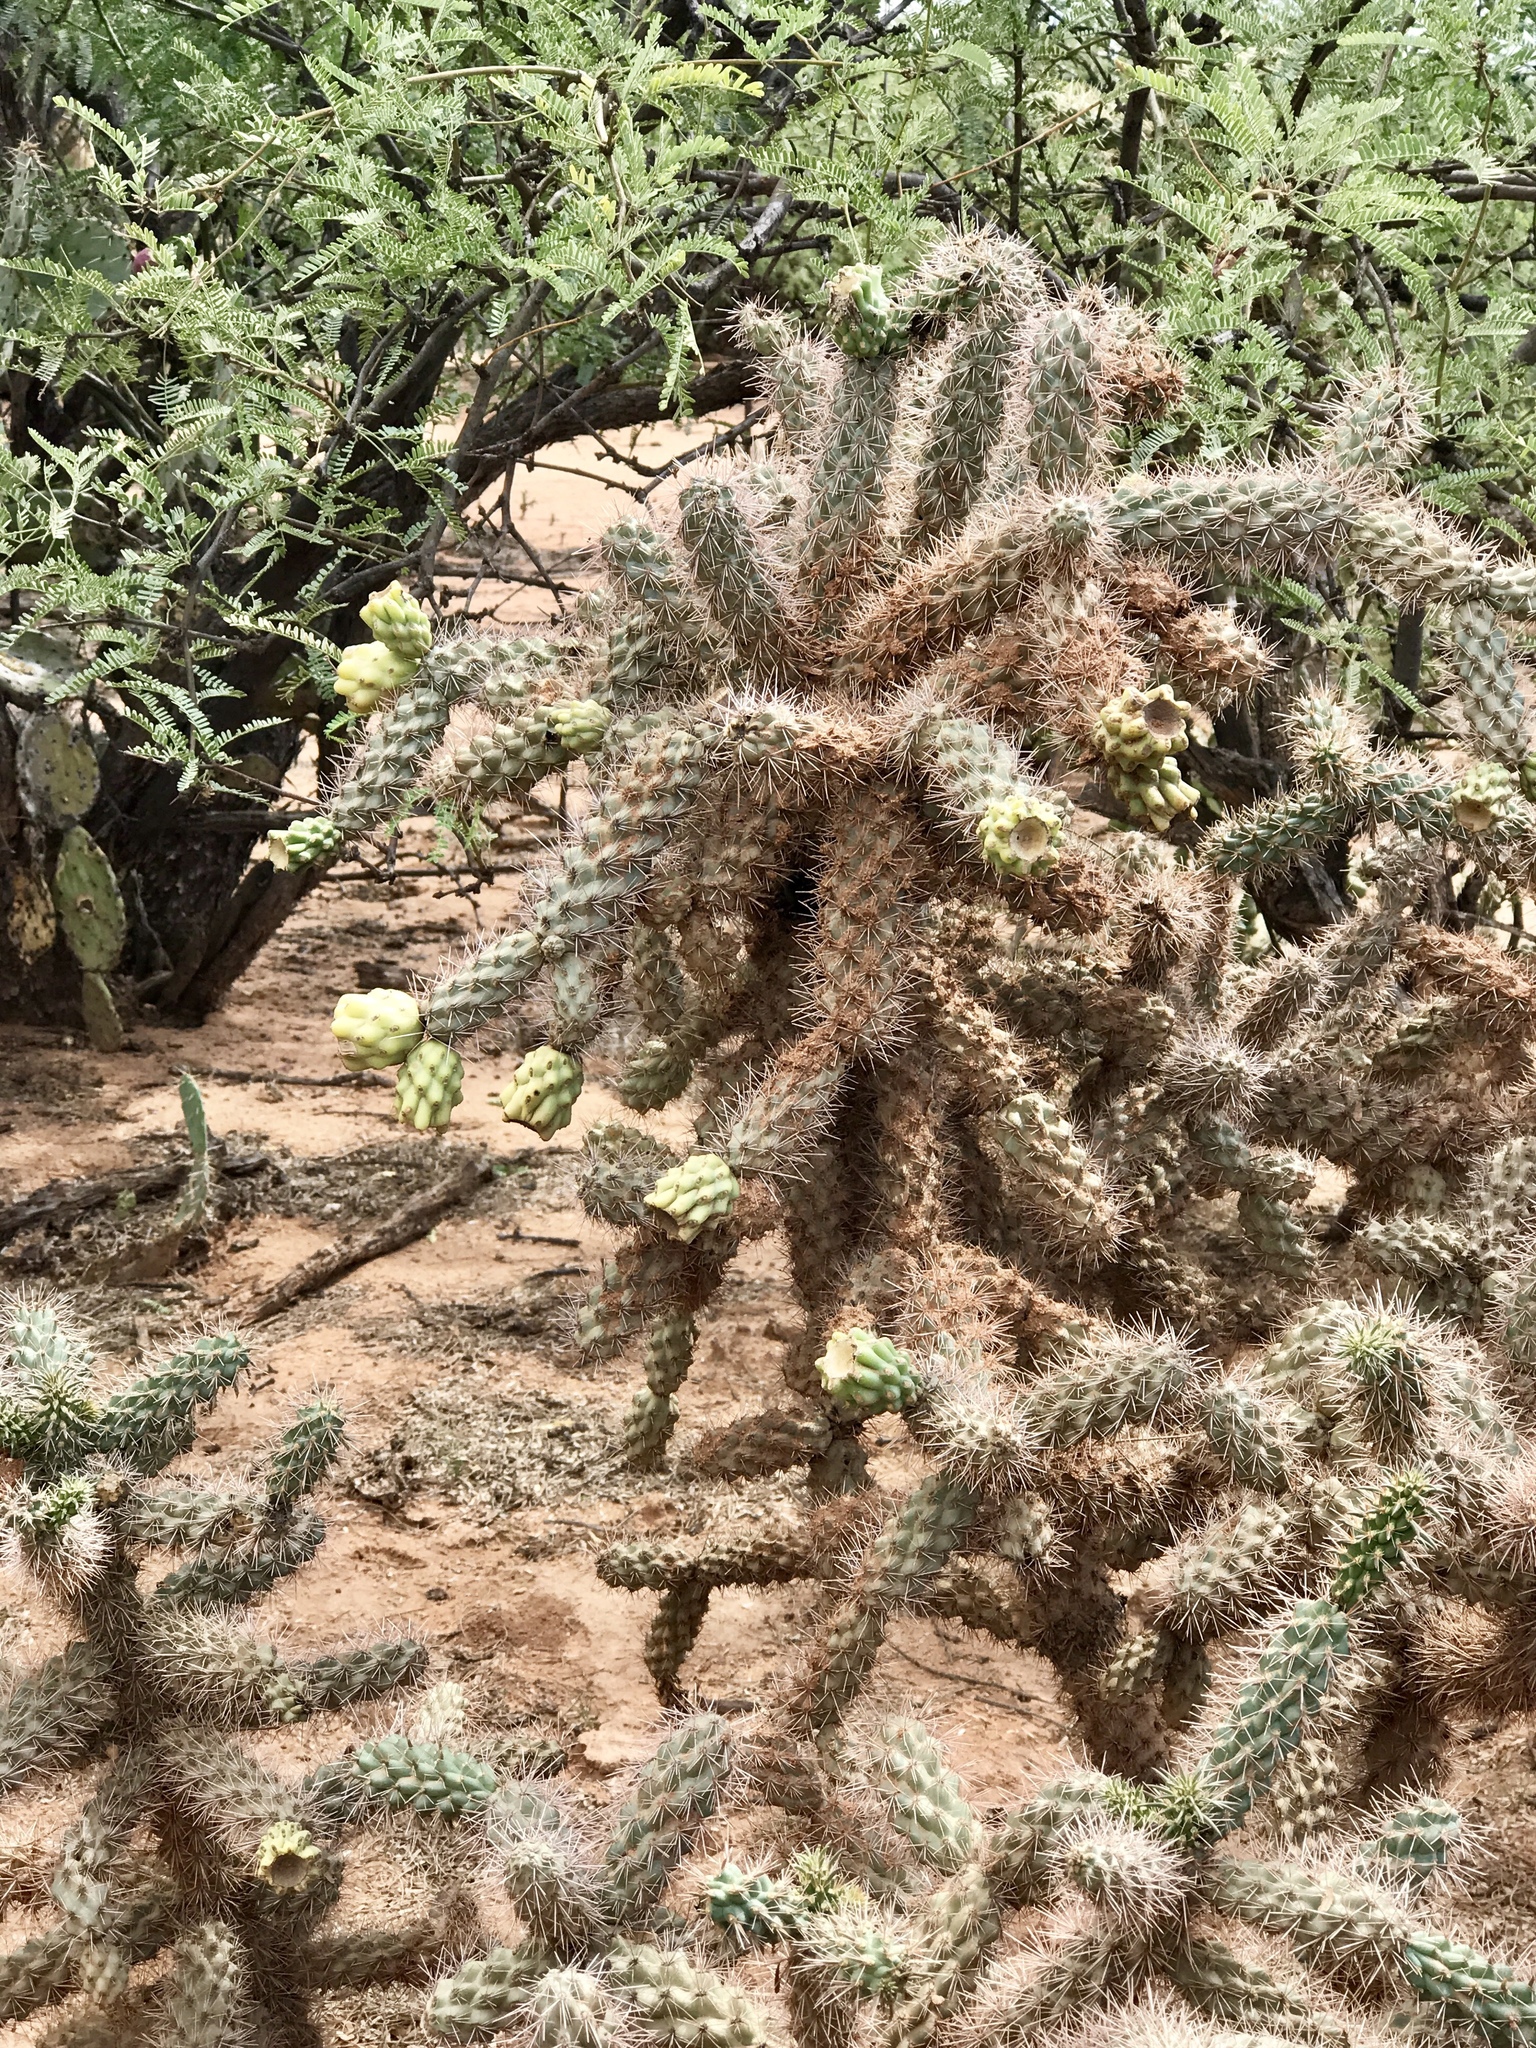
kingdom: Plantae
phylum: Tracheophyta
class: Magnoliopsida
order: Caryophyllales
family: Cactaceae
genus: Cylindropuntia
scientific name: Cylindropuntia imbricata
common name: Candelabrum cactus
